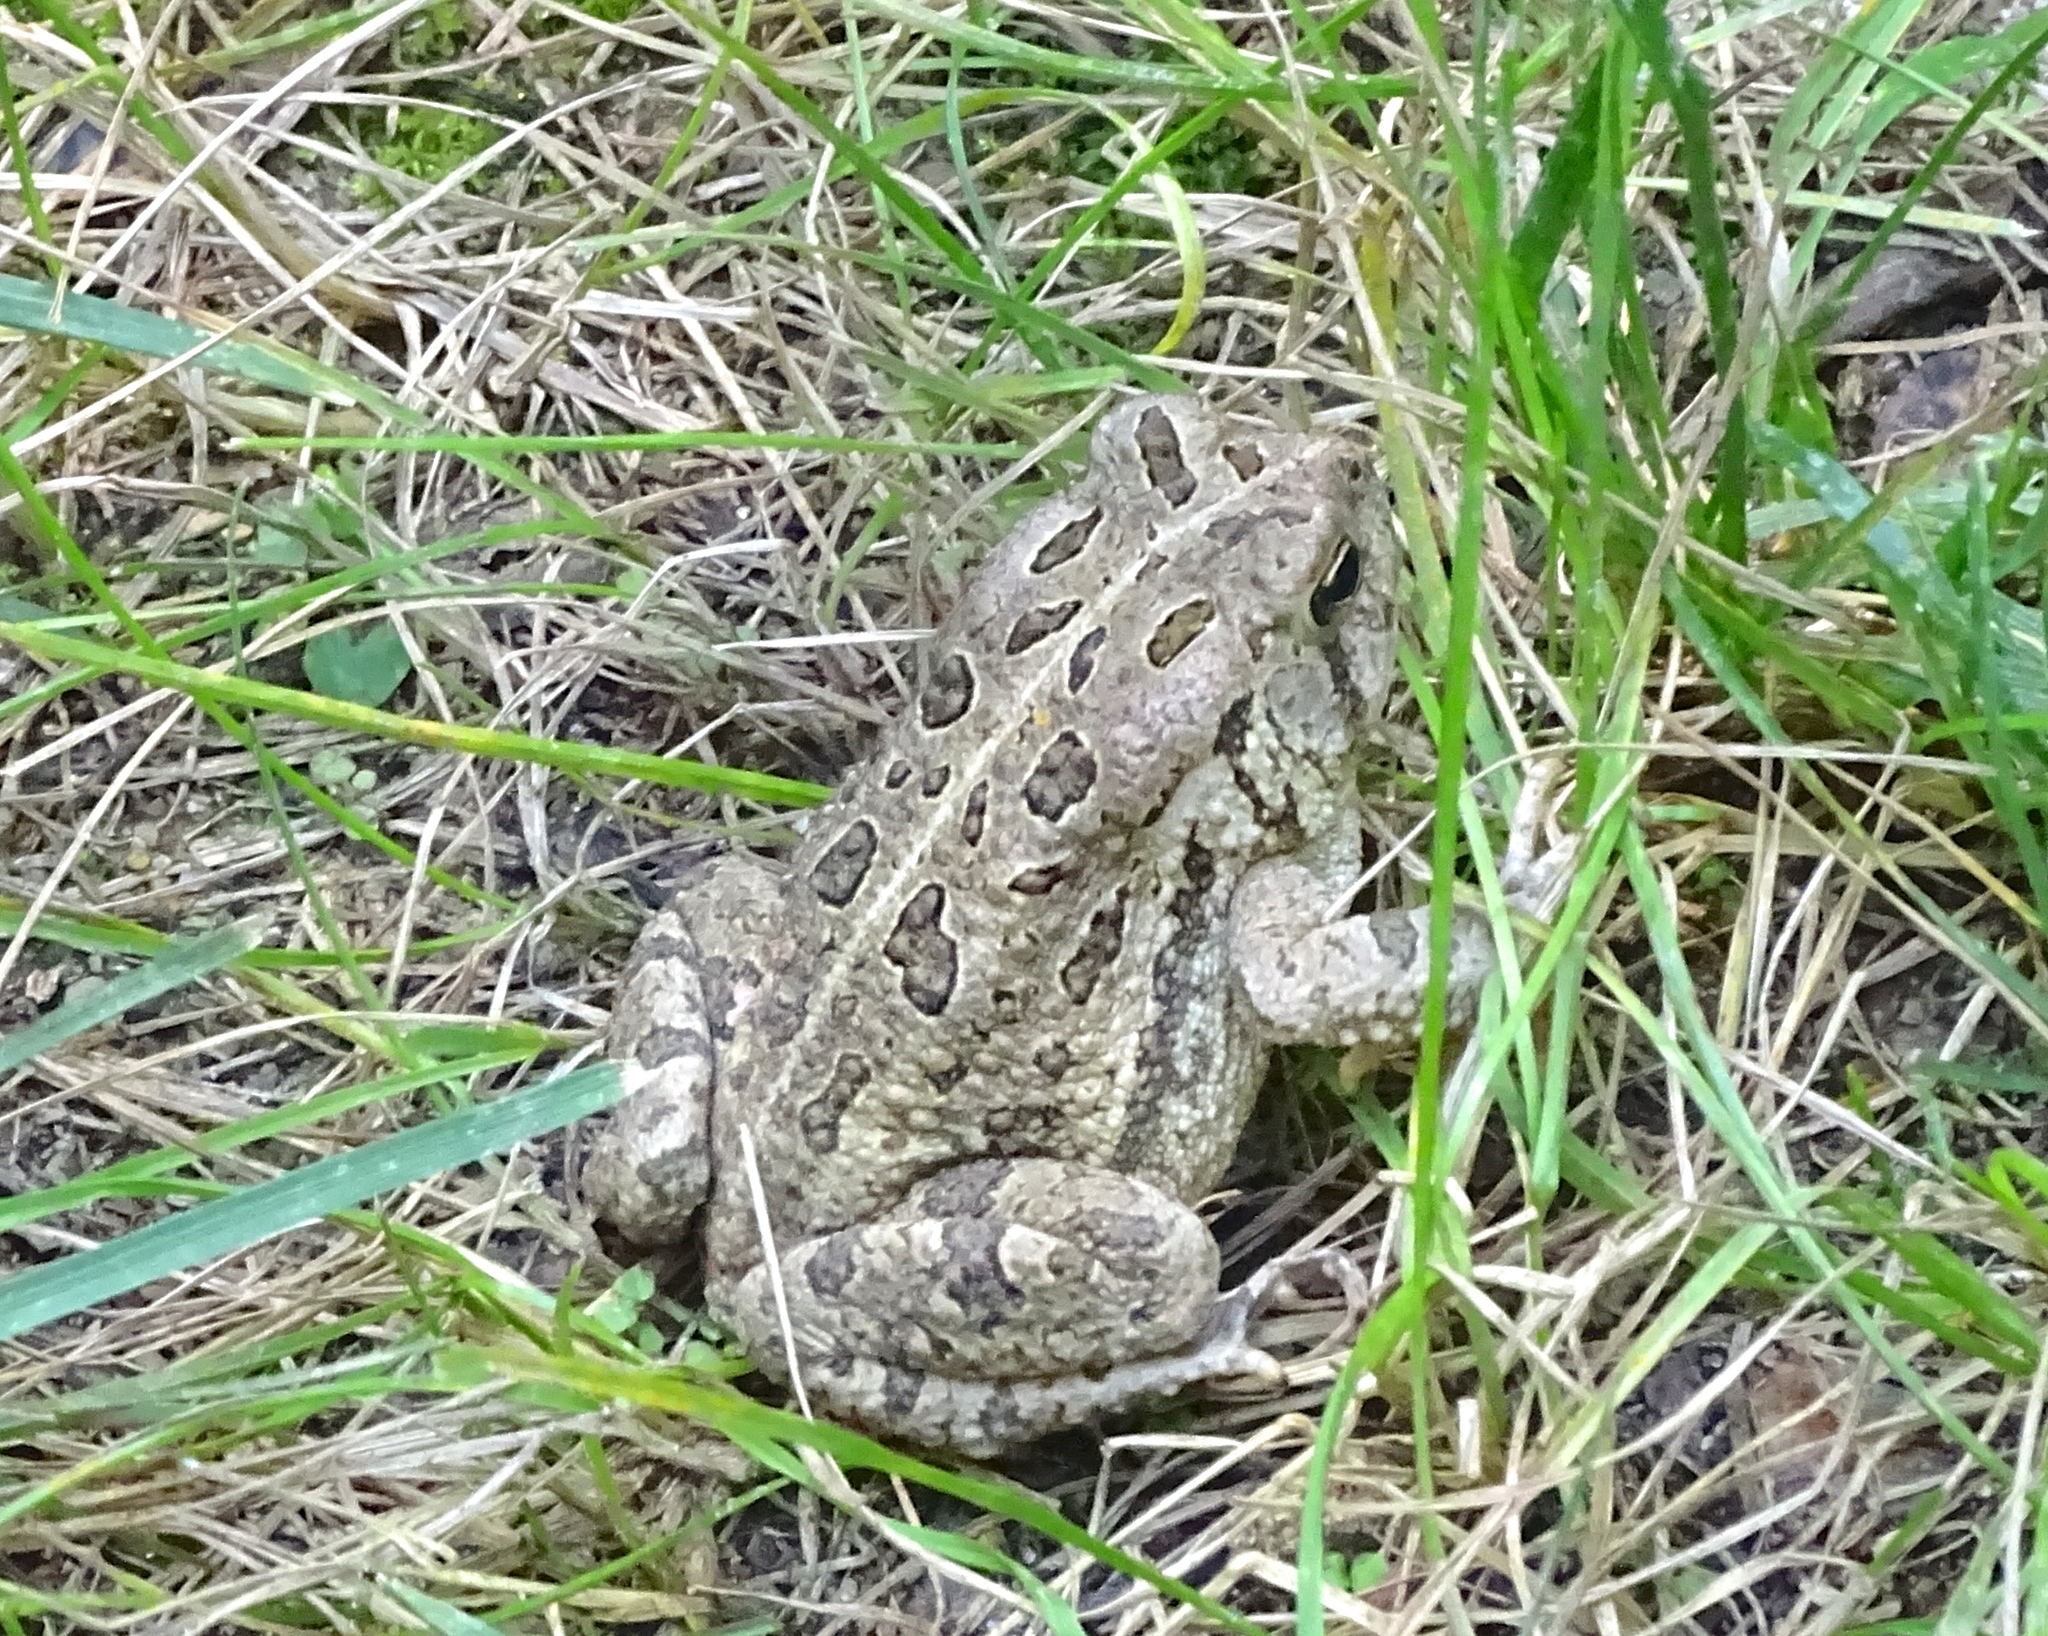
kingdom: Animalia
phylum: Chordata
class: Amphibia
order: Anura
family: Bufonidae
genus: Anaxyrus
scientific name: Anaxyrus fowleri
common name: Fowler's toad
